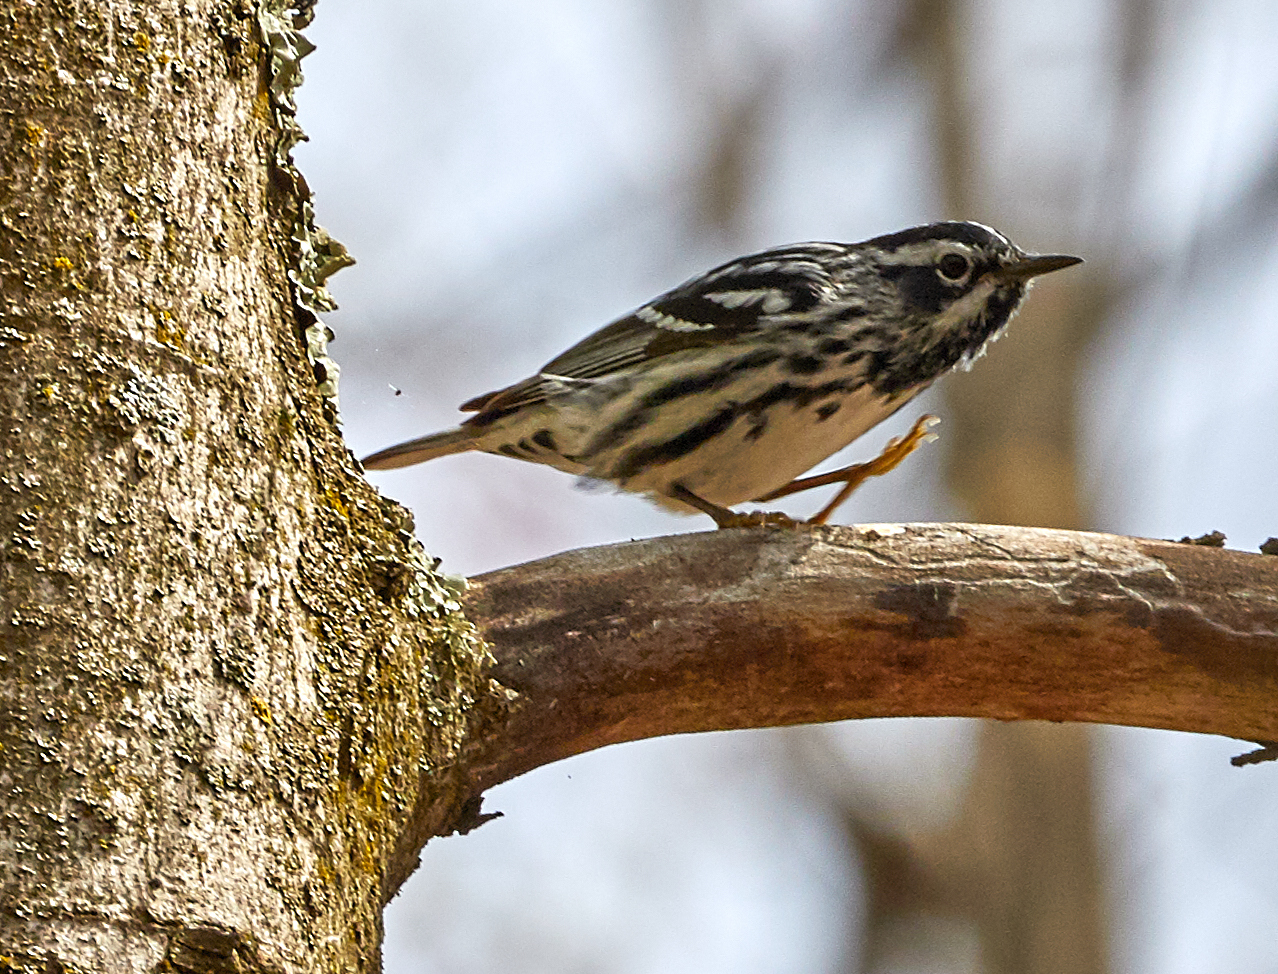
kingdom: Animalia
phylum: Chordata
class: Aves
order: Passeriformes
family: Parulidae
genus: Mniotilta
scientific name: Mniotilta varia
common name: Black-and-white warbler
